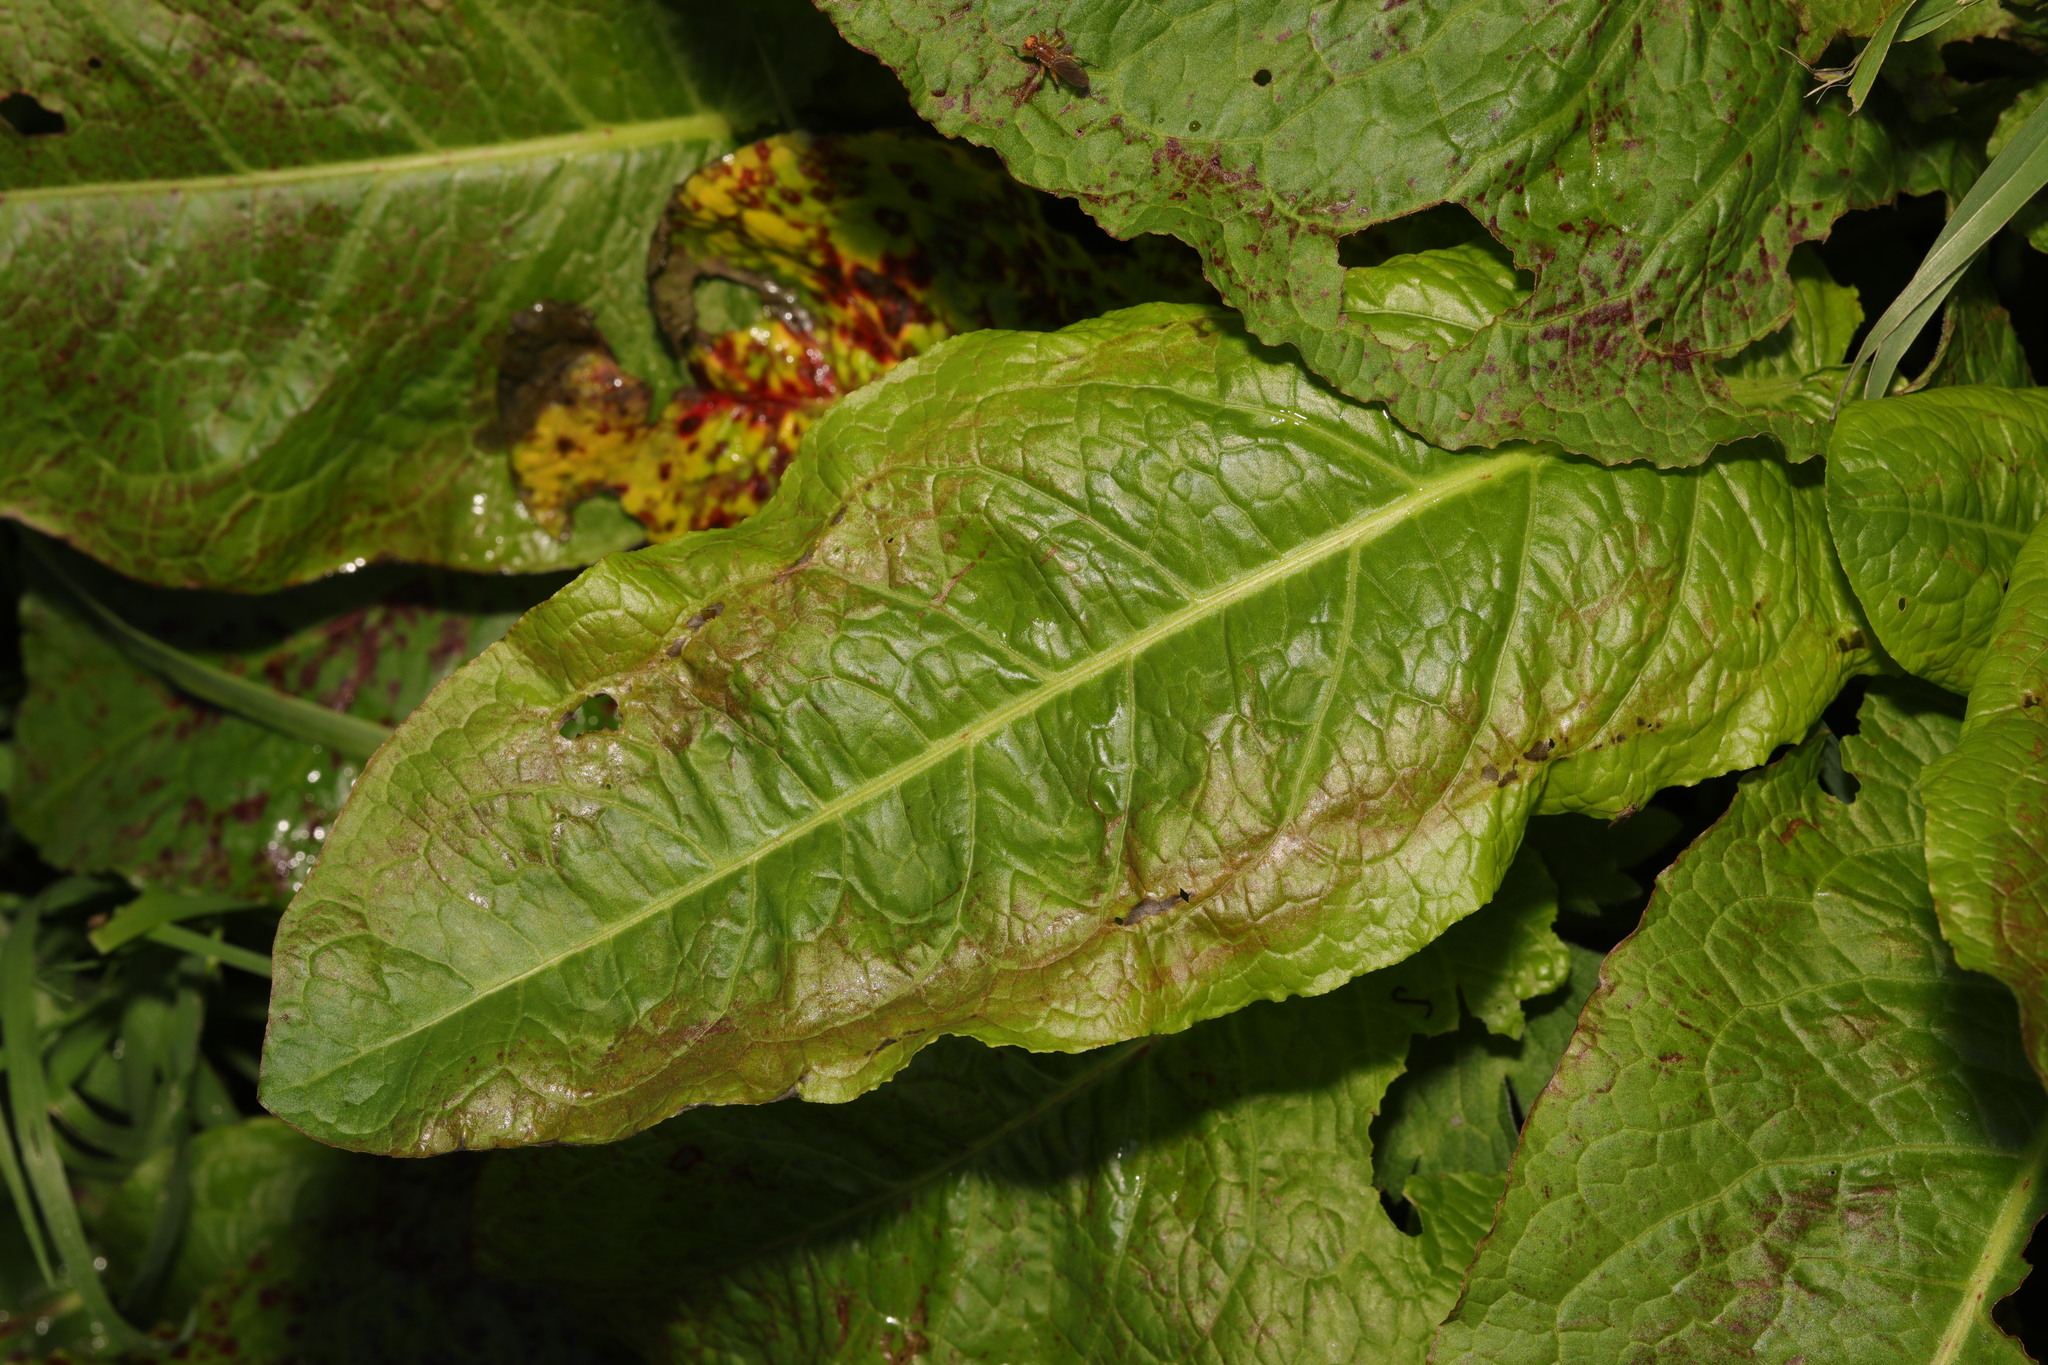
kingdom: Plantae
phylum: Tracheophyta
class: Magnoliopsida
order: Caryophyllales
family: Polygonaceae
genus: Rumex
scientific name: Rumex obtusifolius
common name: Bitter dock
